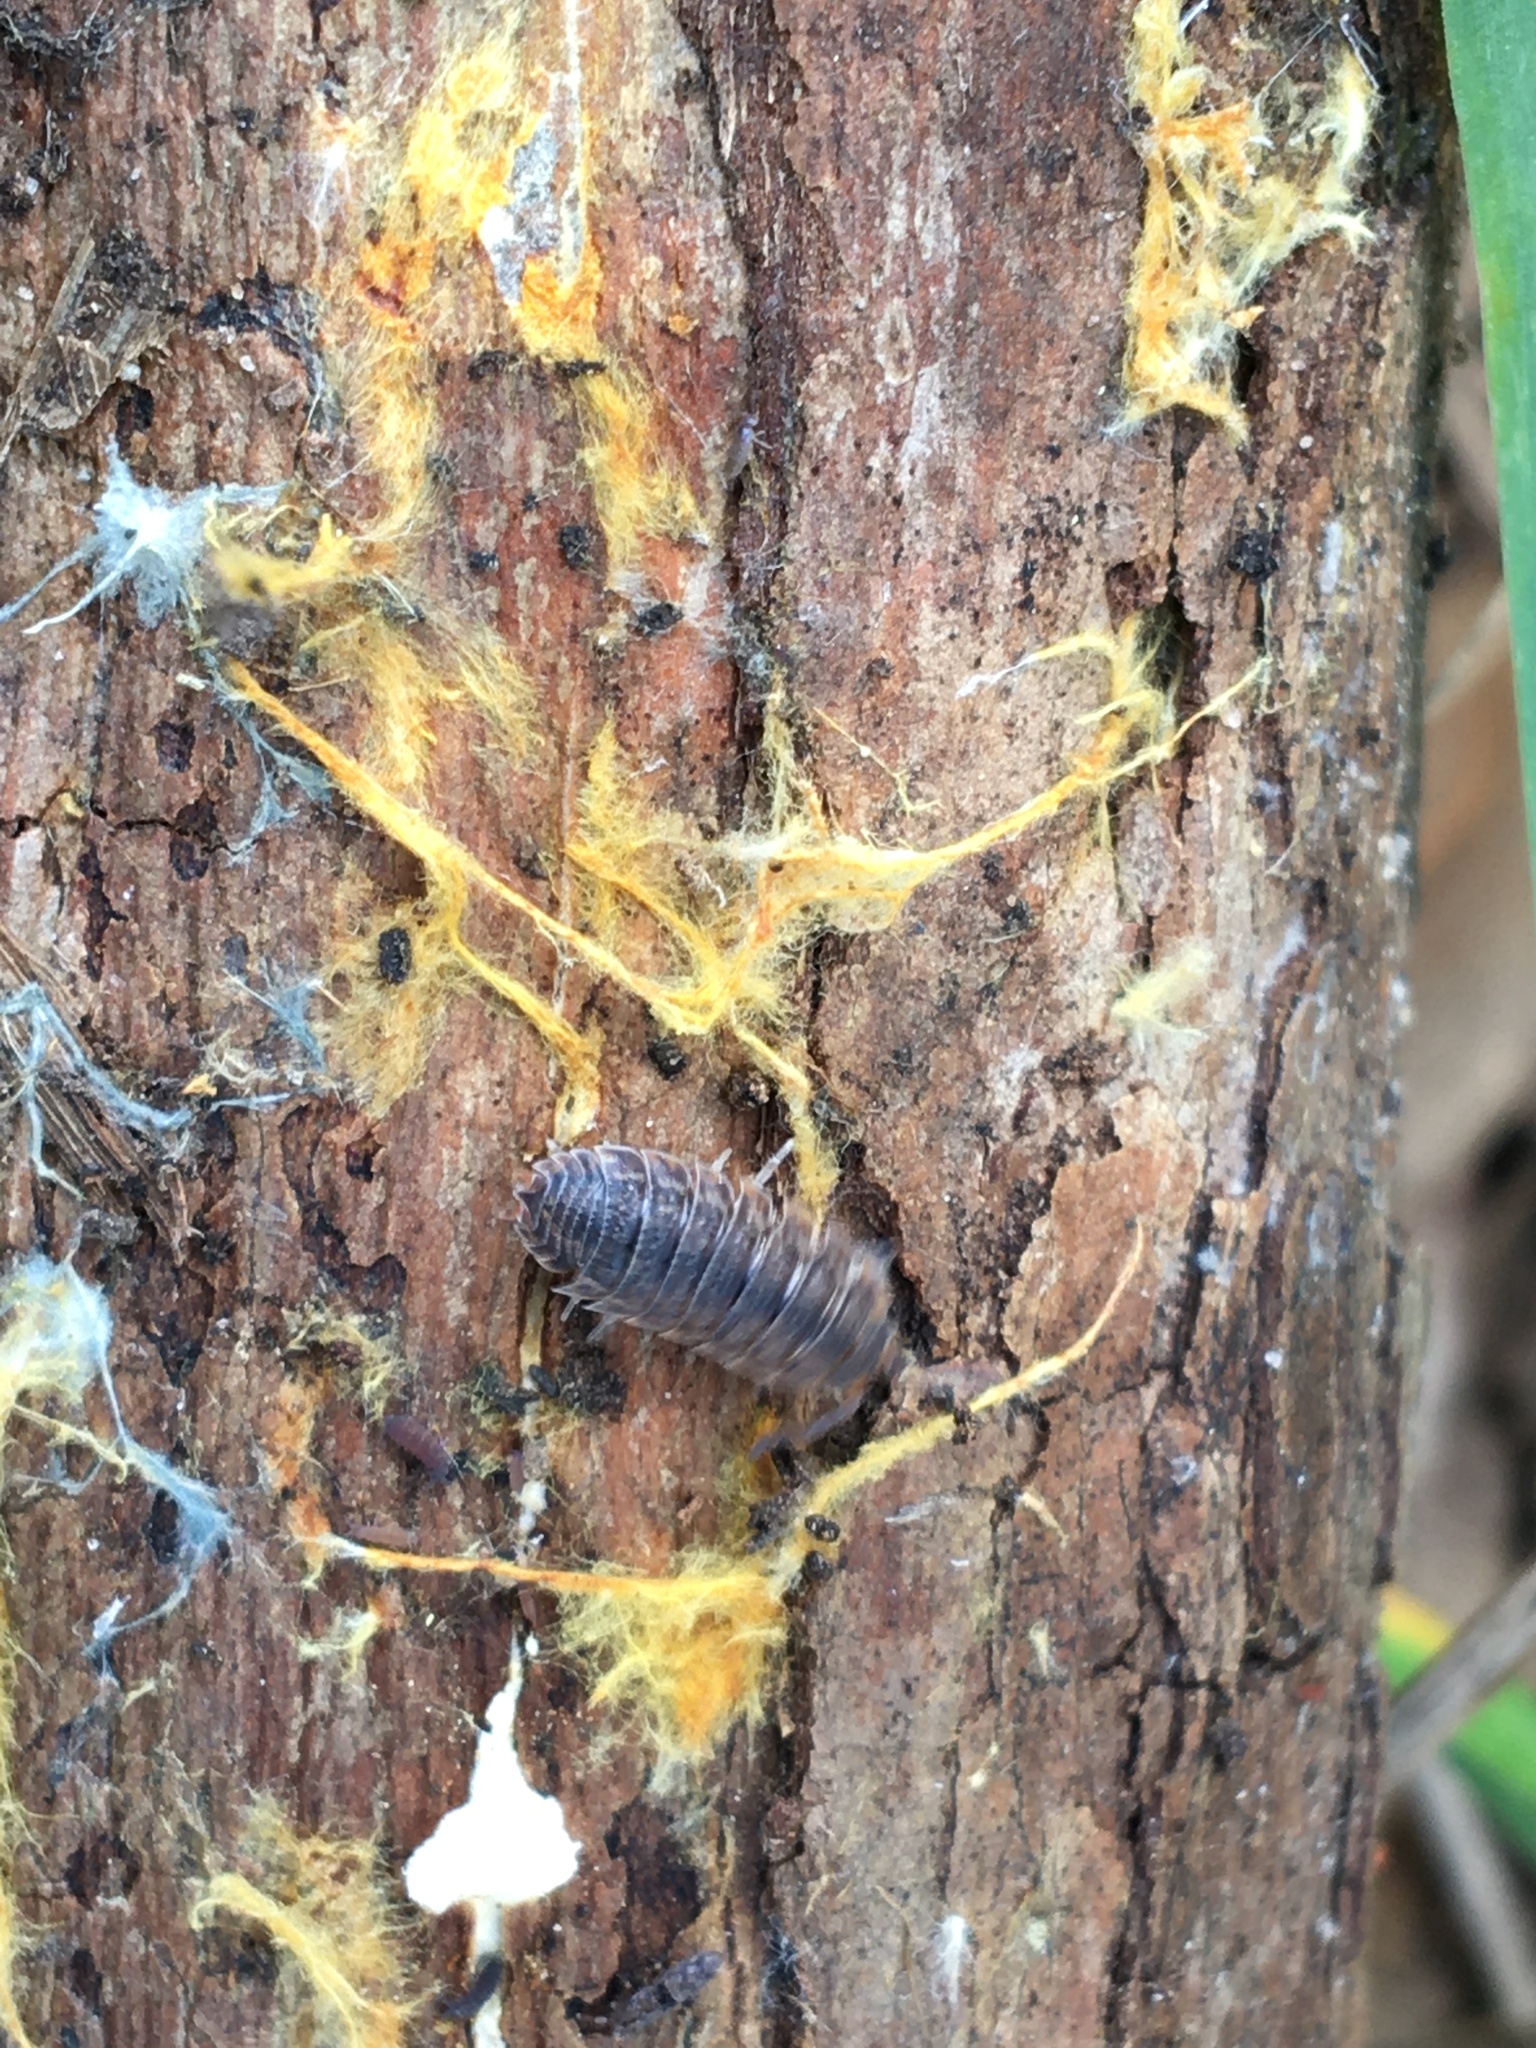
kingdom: Fungi
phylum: Basidiomycota
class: Agaricomycetes
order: Polyporales
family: Phanerochaetaceae
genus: Rhizochaete
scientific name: Rhizochaete filamentosa
